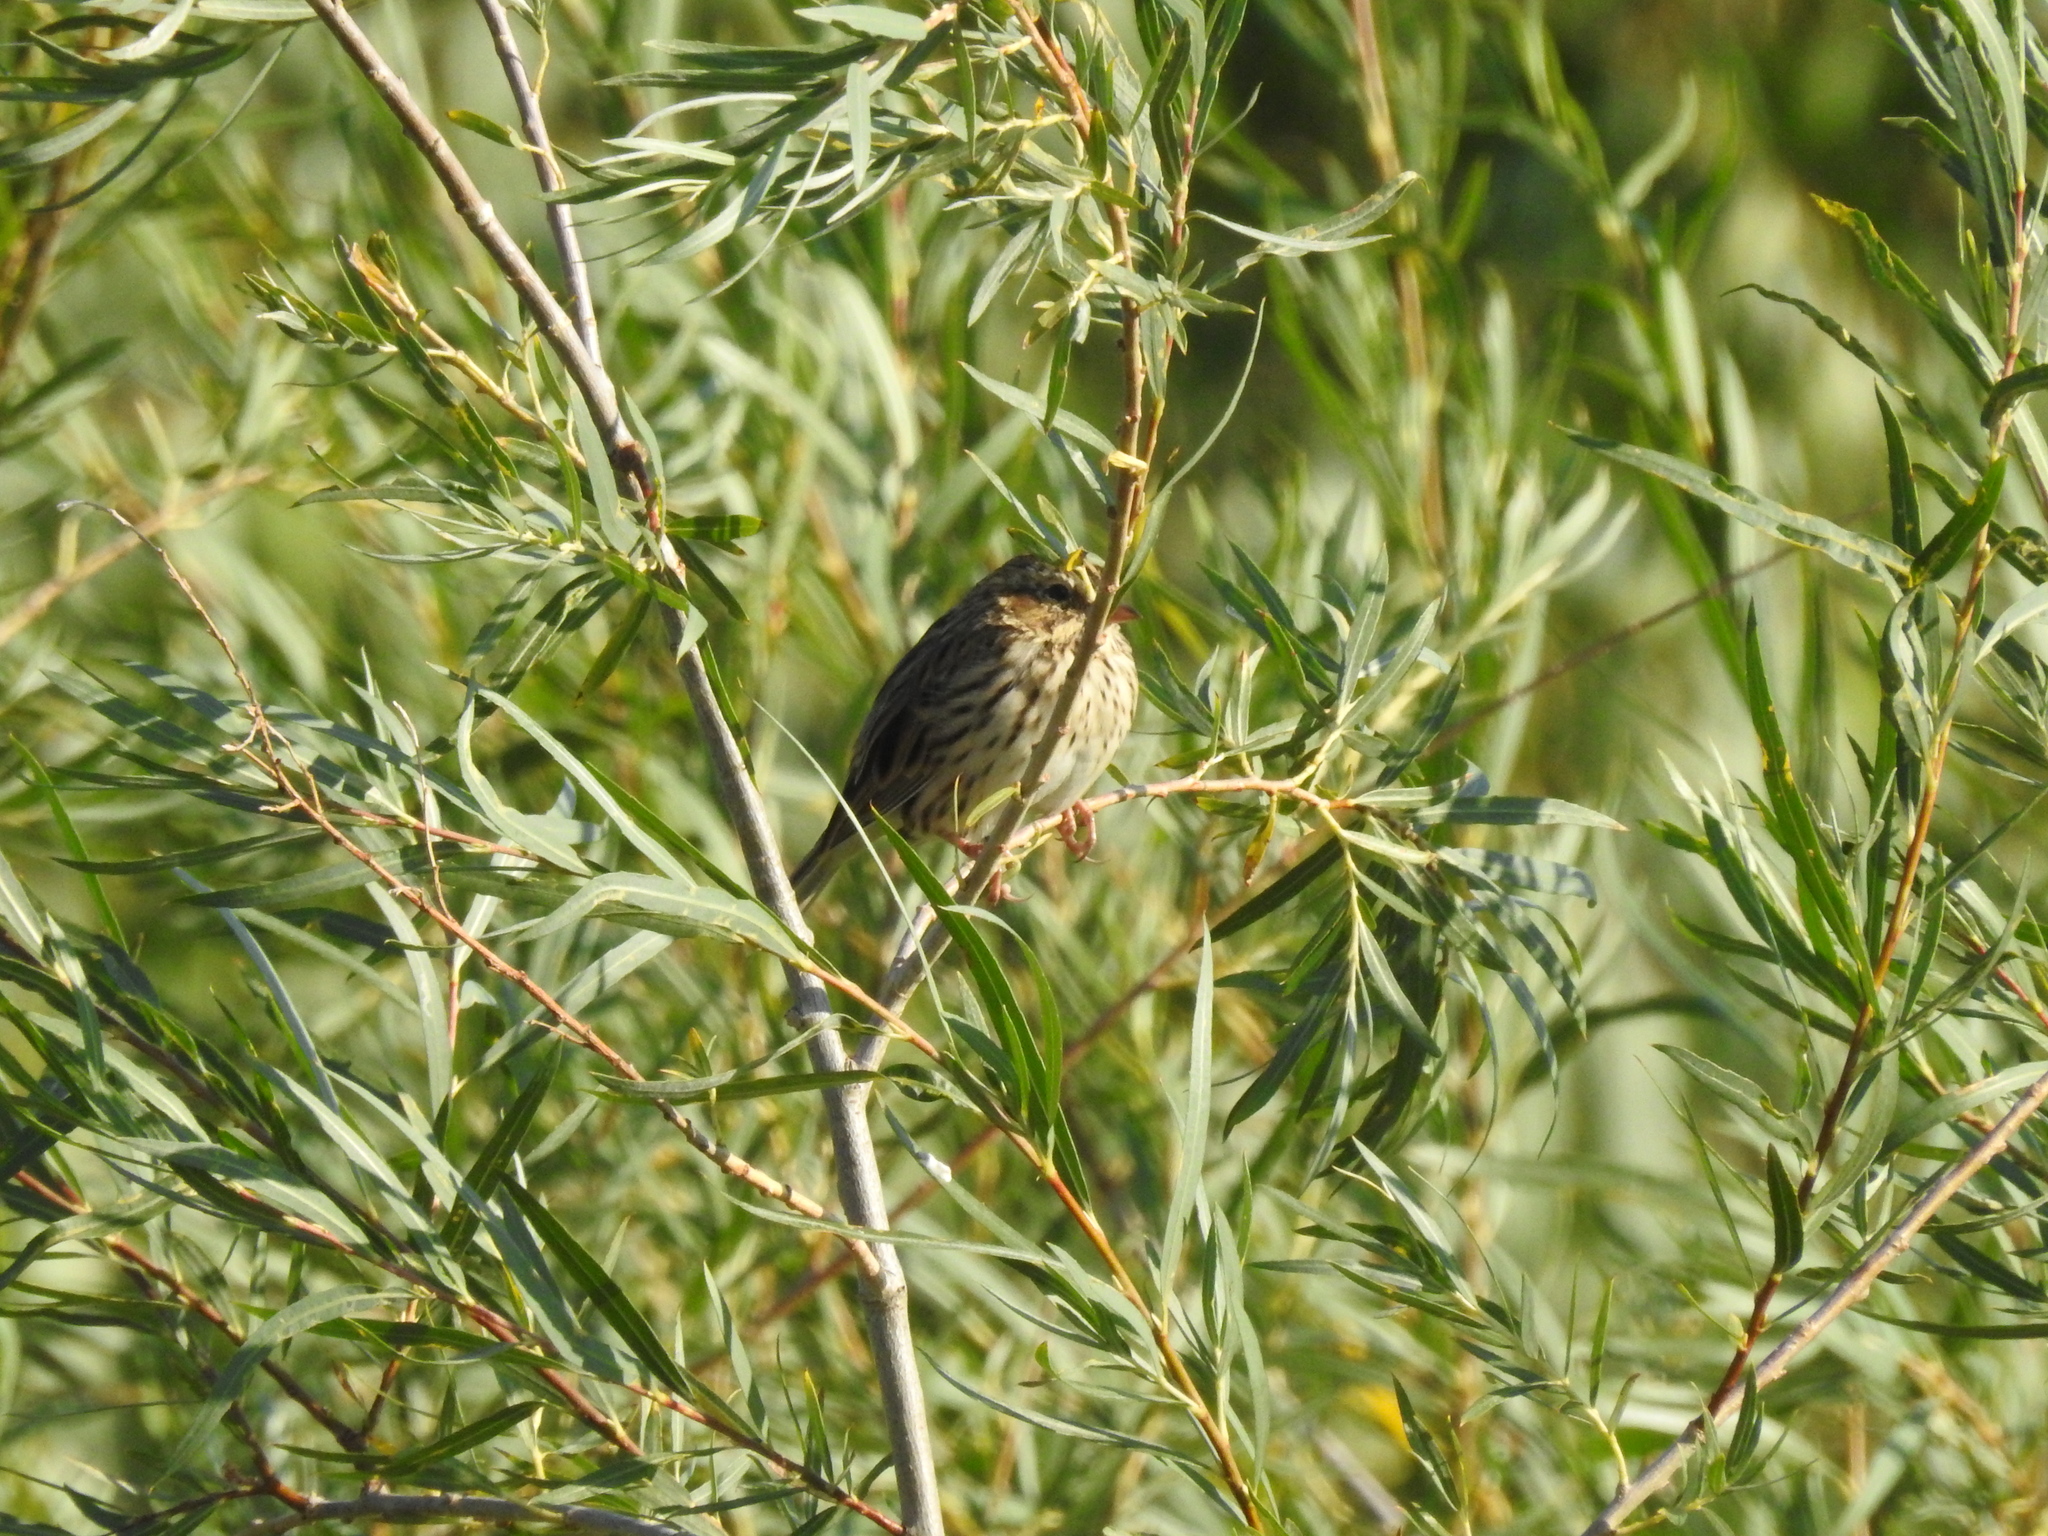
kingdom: Animalia
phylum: Chordata
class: Aves
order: Passeriformes
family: Passerellidae
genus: Passerculus
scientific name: Passerculus sandwichensis
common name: Savannah sparrow
